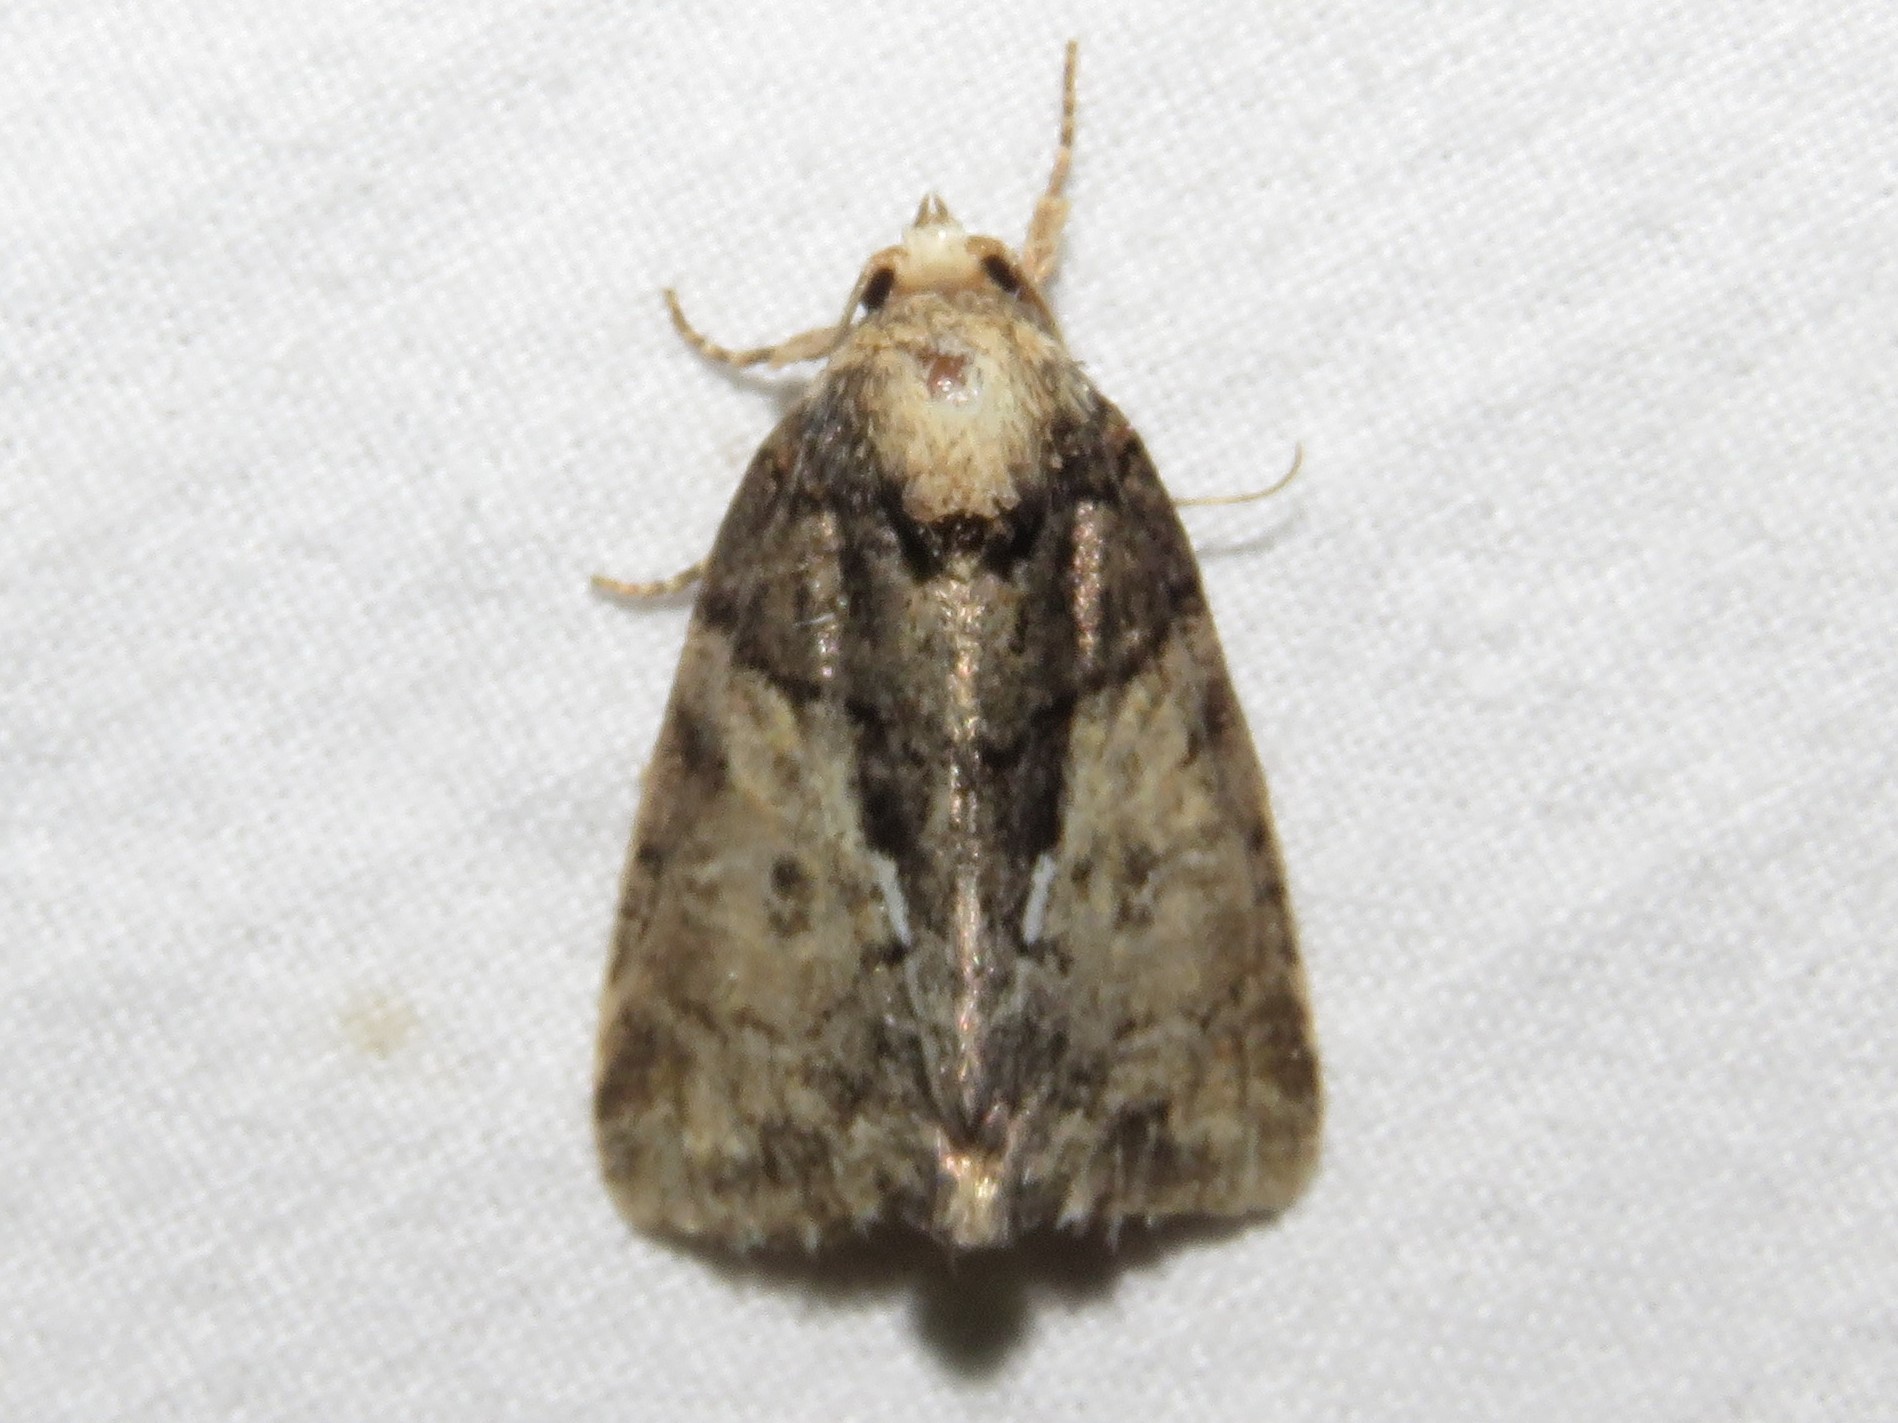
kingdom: Animalia
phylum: Arthropoda
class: Insecta
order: Lepidoptera
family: Noctuidae
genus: Chytonix
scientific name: Chytonix palliatricula
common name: Cloaked marvel
